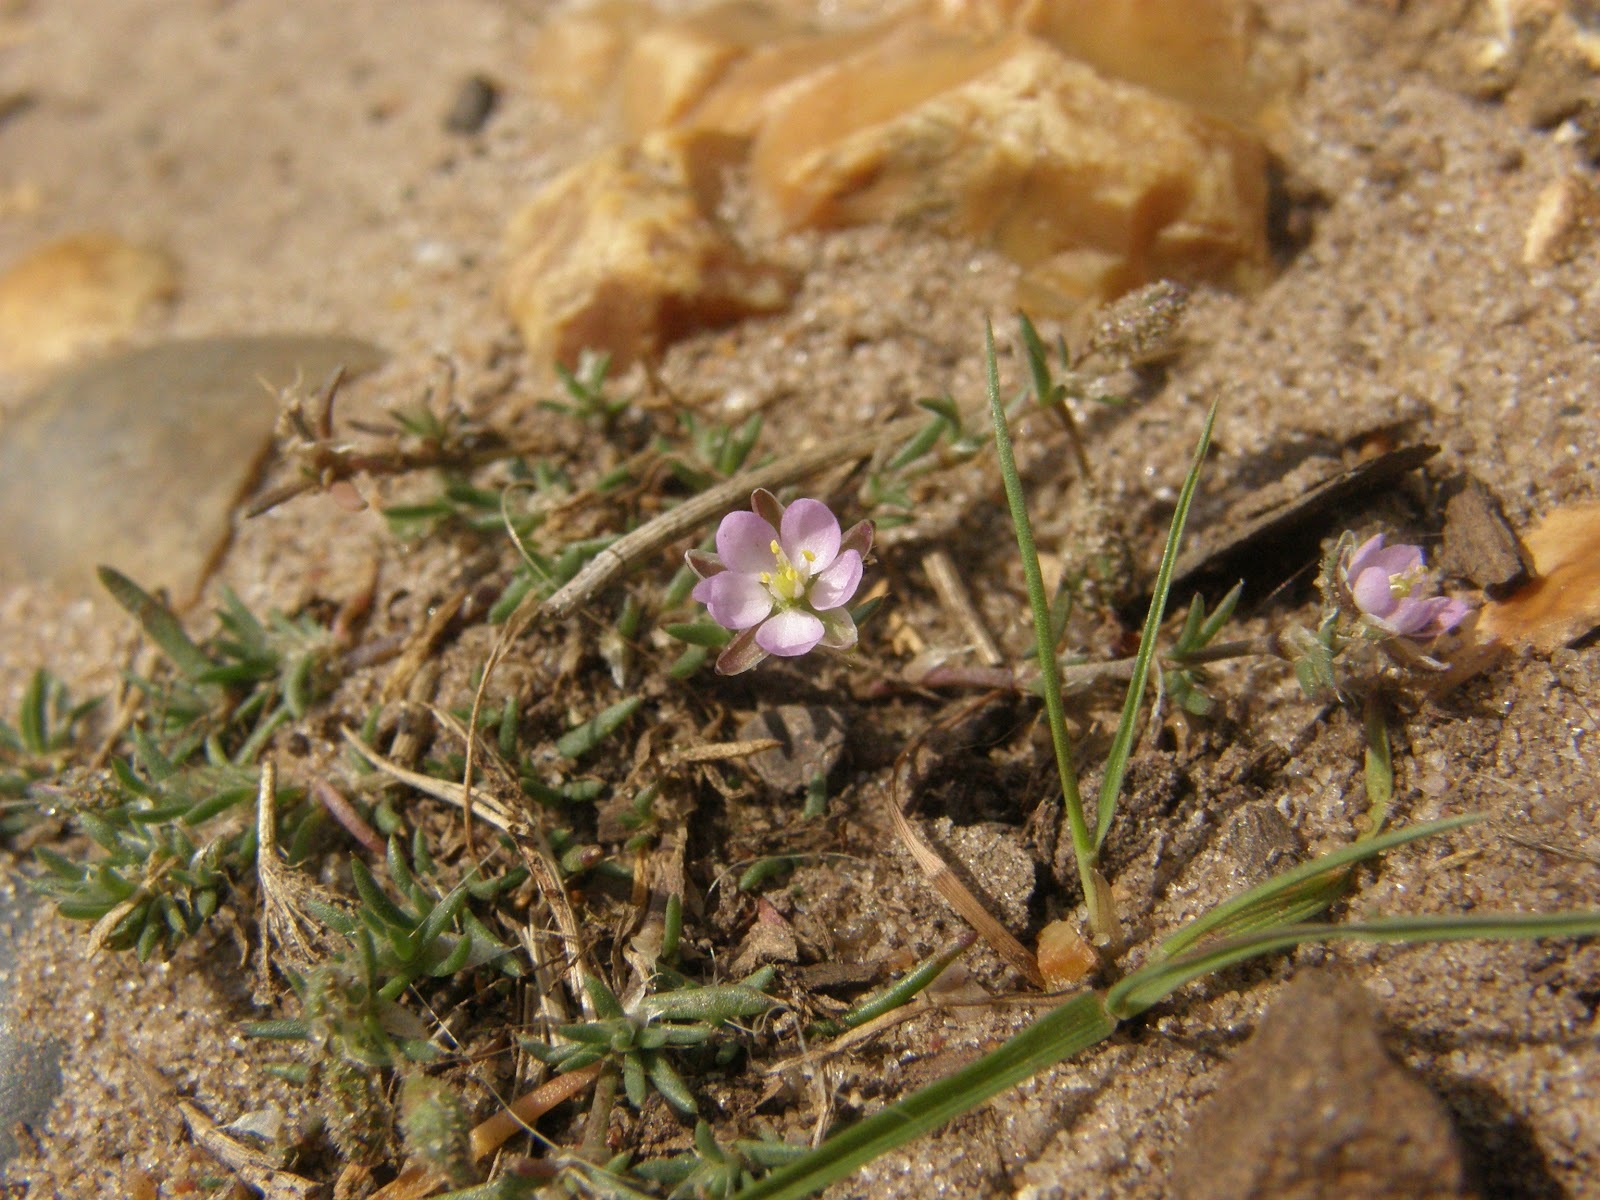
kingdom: Plantae
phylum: Tracheophyta
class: Magnoliopsida
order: Caryophyllales
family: Caryophyllaceae
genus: Spergularia
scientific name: Spergularia rubra
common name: Red sand-spurrey
